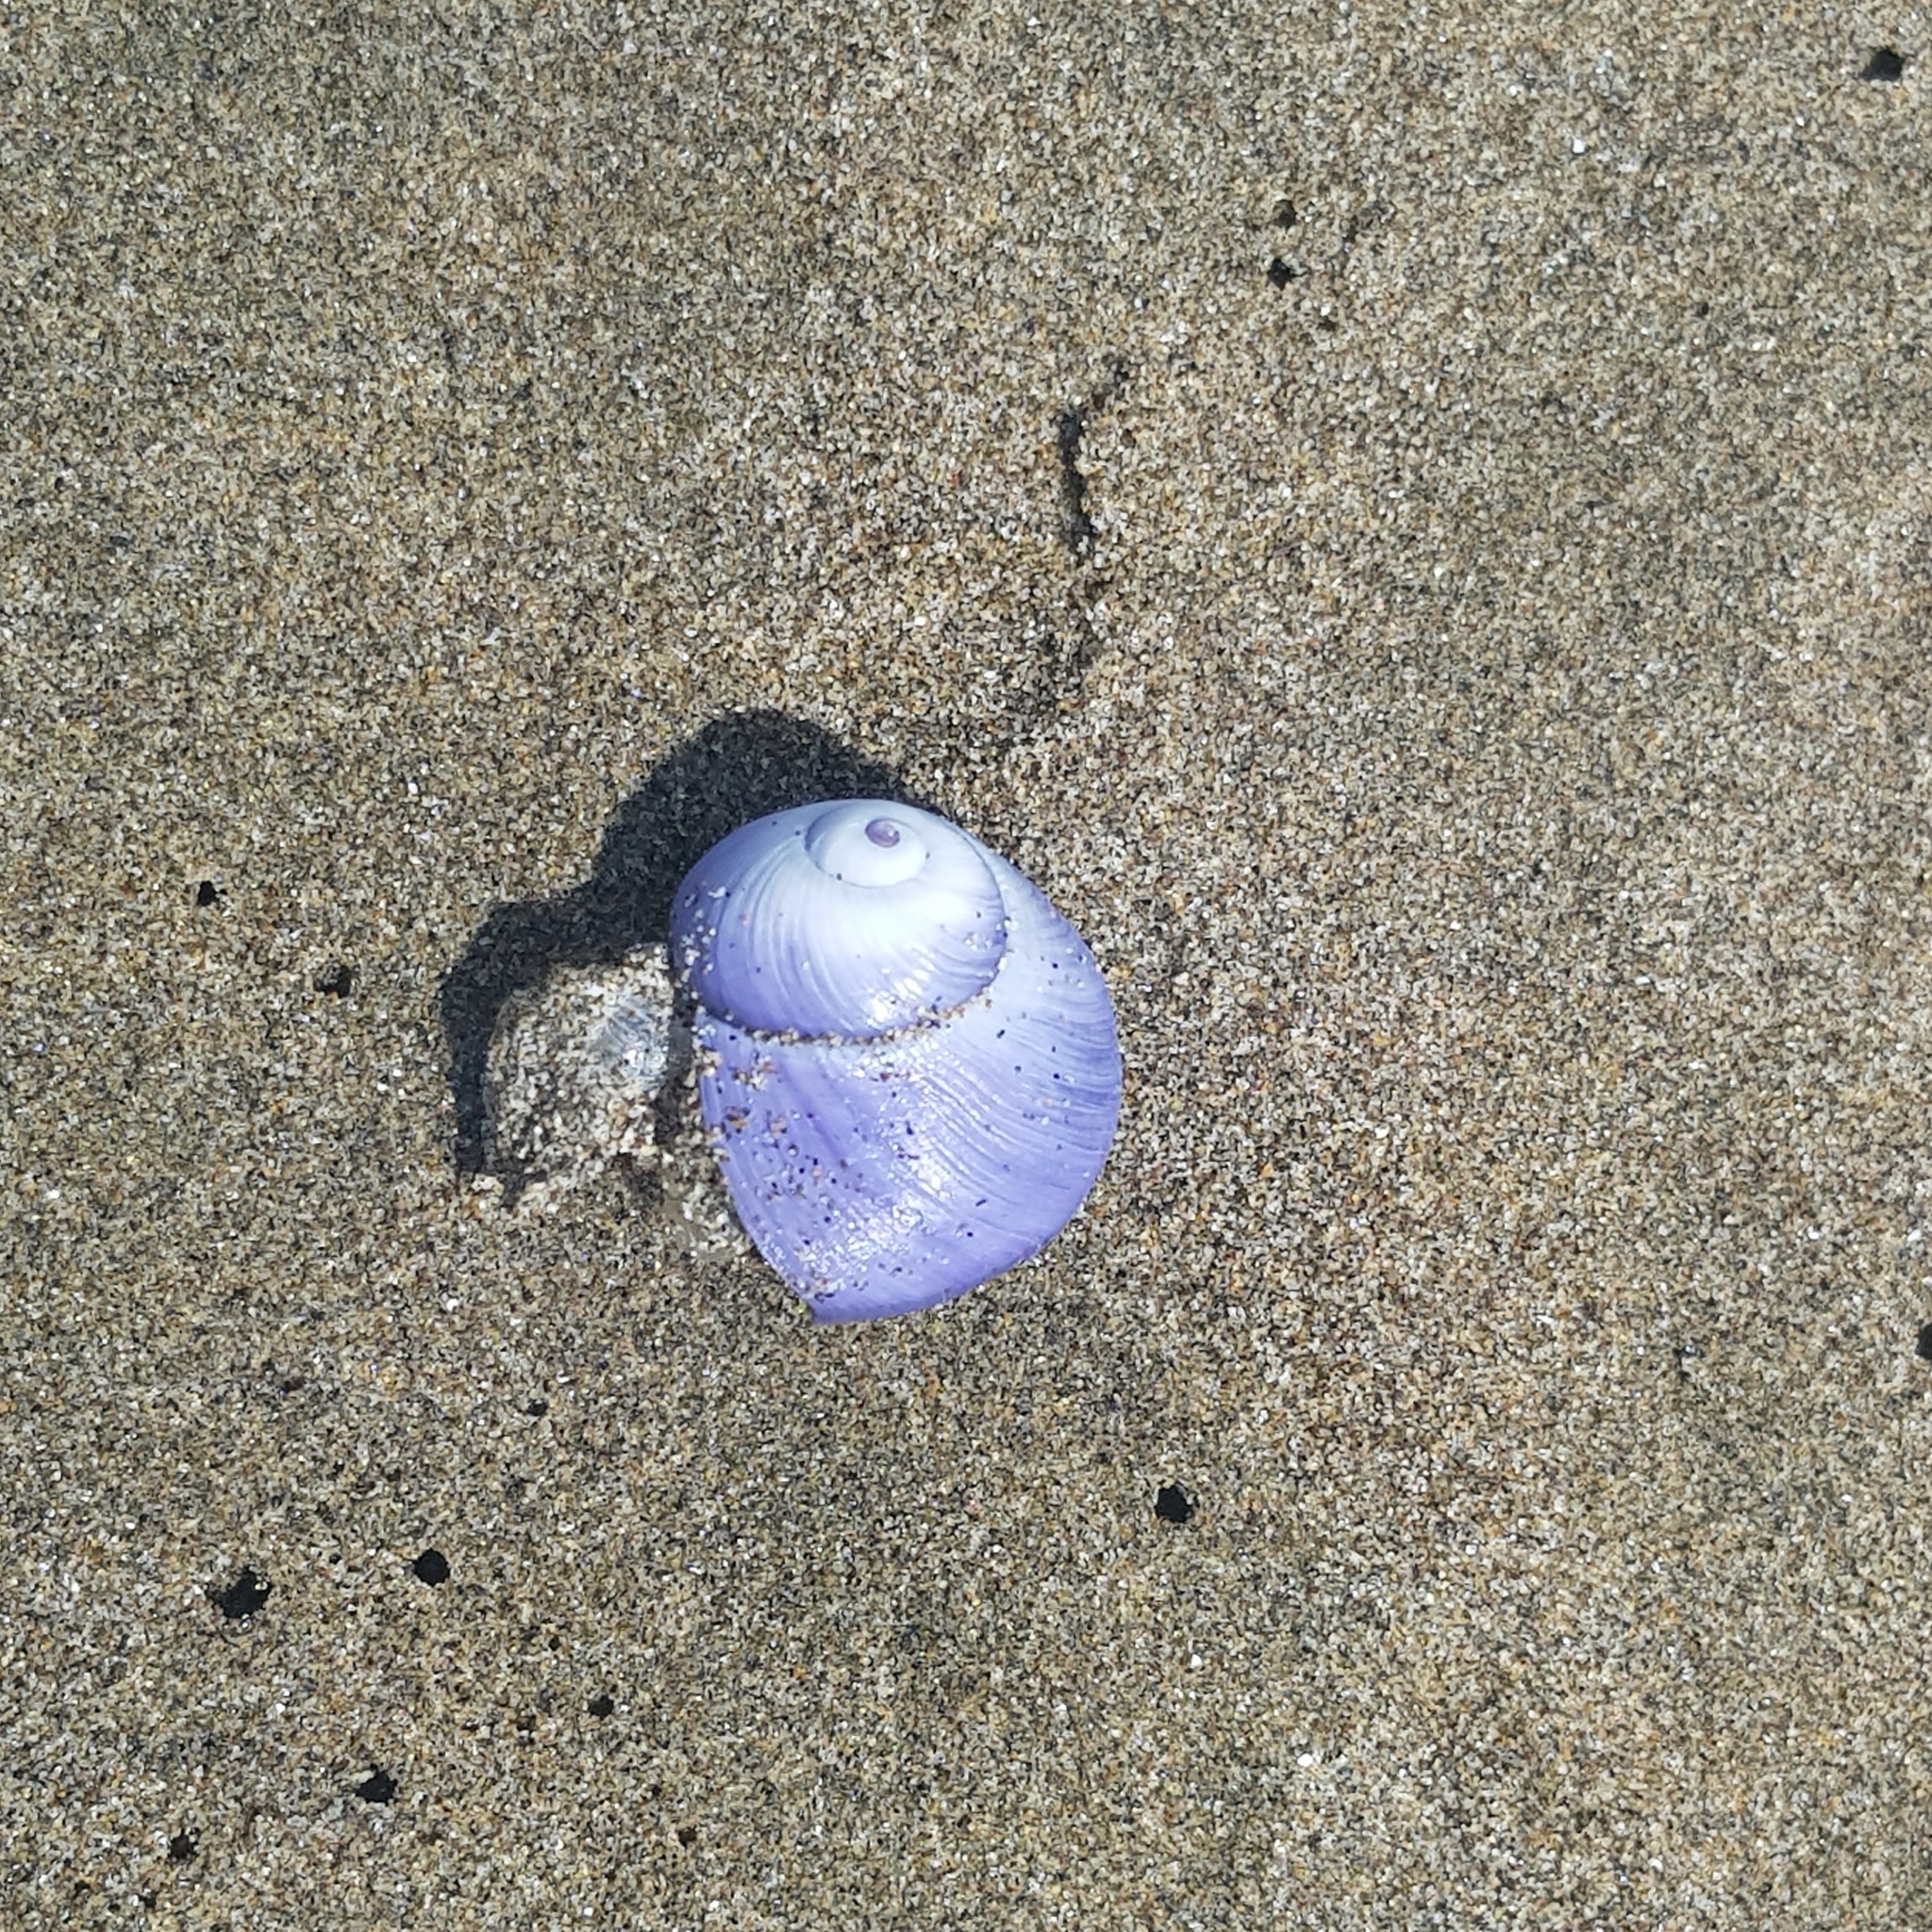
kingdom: Animalia
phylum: Mollusca
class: Gastropoda
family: Epitoniidae
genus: Janthina
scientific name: Janthina janthina
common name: Common janthina
